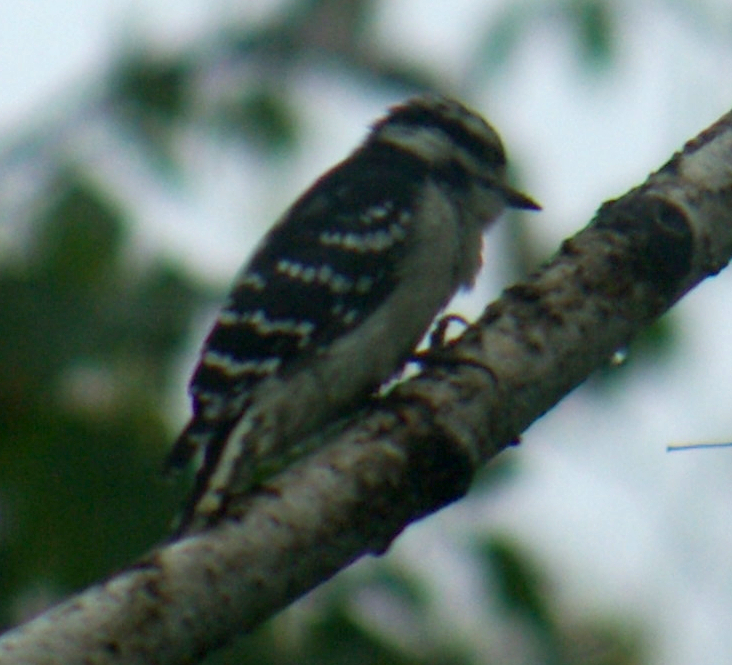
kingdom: Animalia
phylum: Chordata
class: Aves
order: Piciformes
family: Picidae
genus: Dryobates
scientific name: Dryobates pubescens
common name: Downy woodpecker
